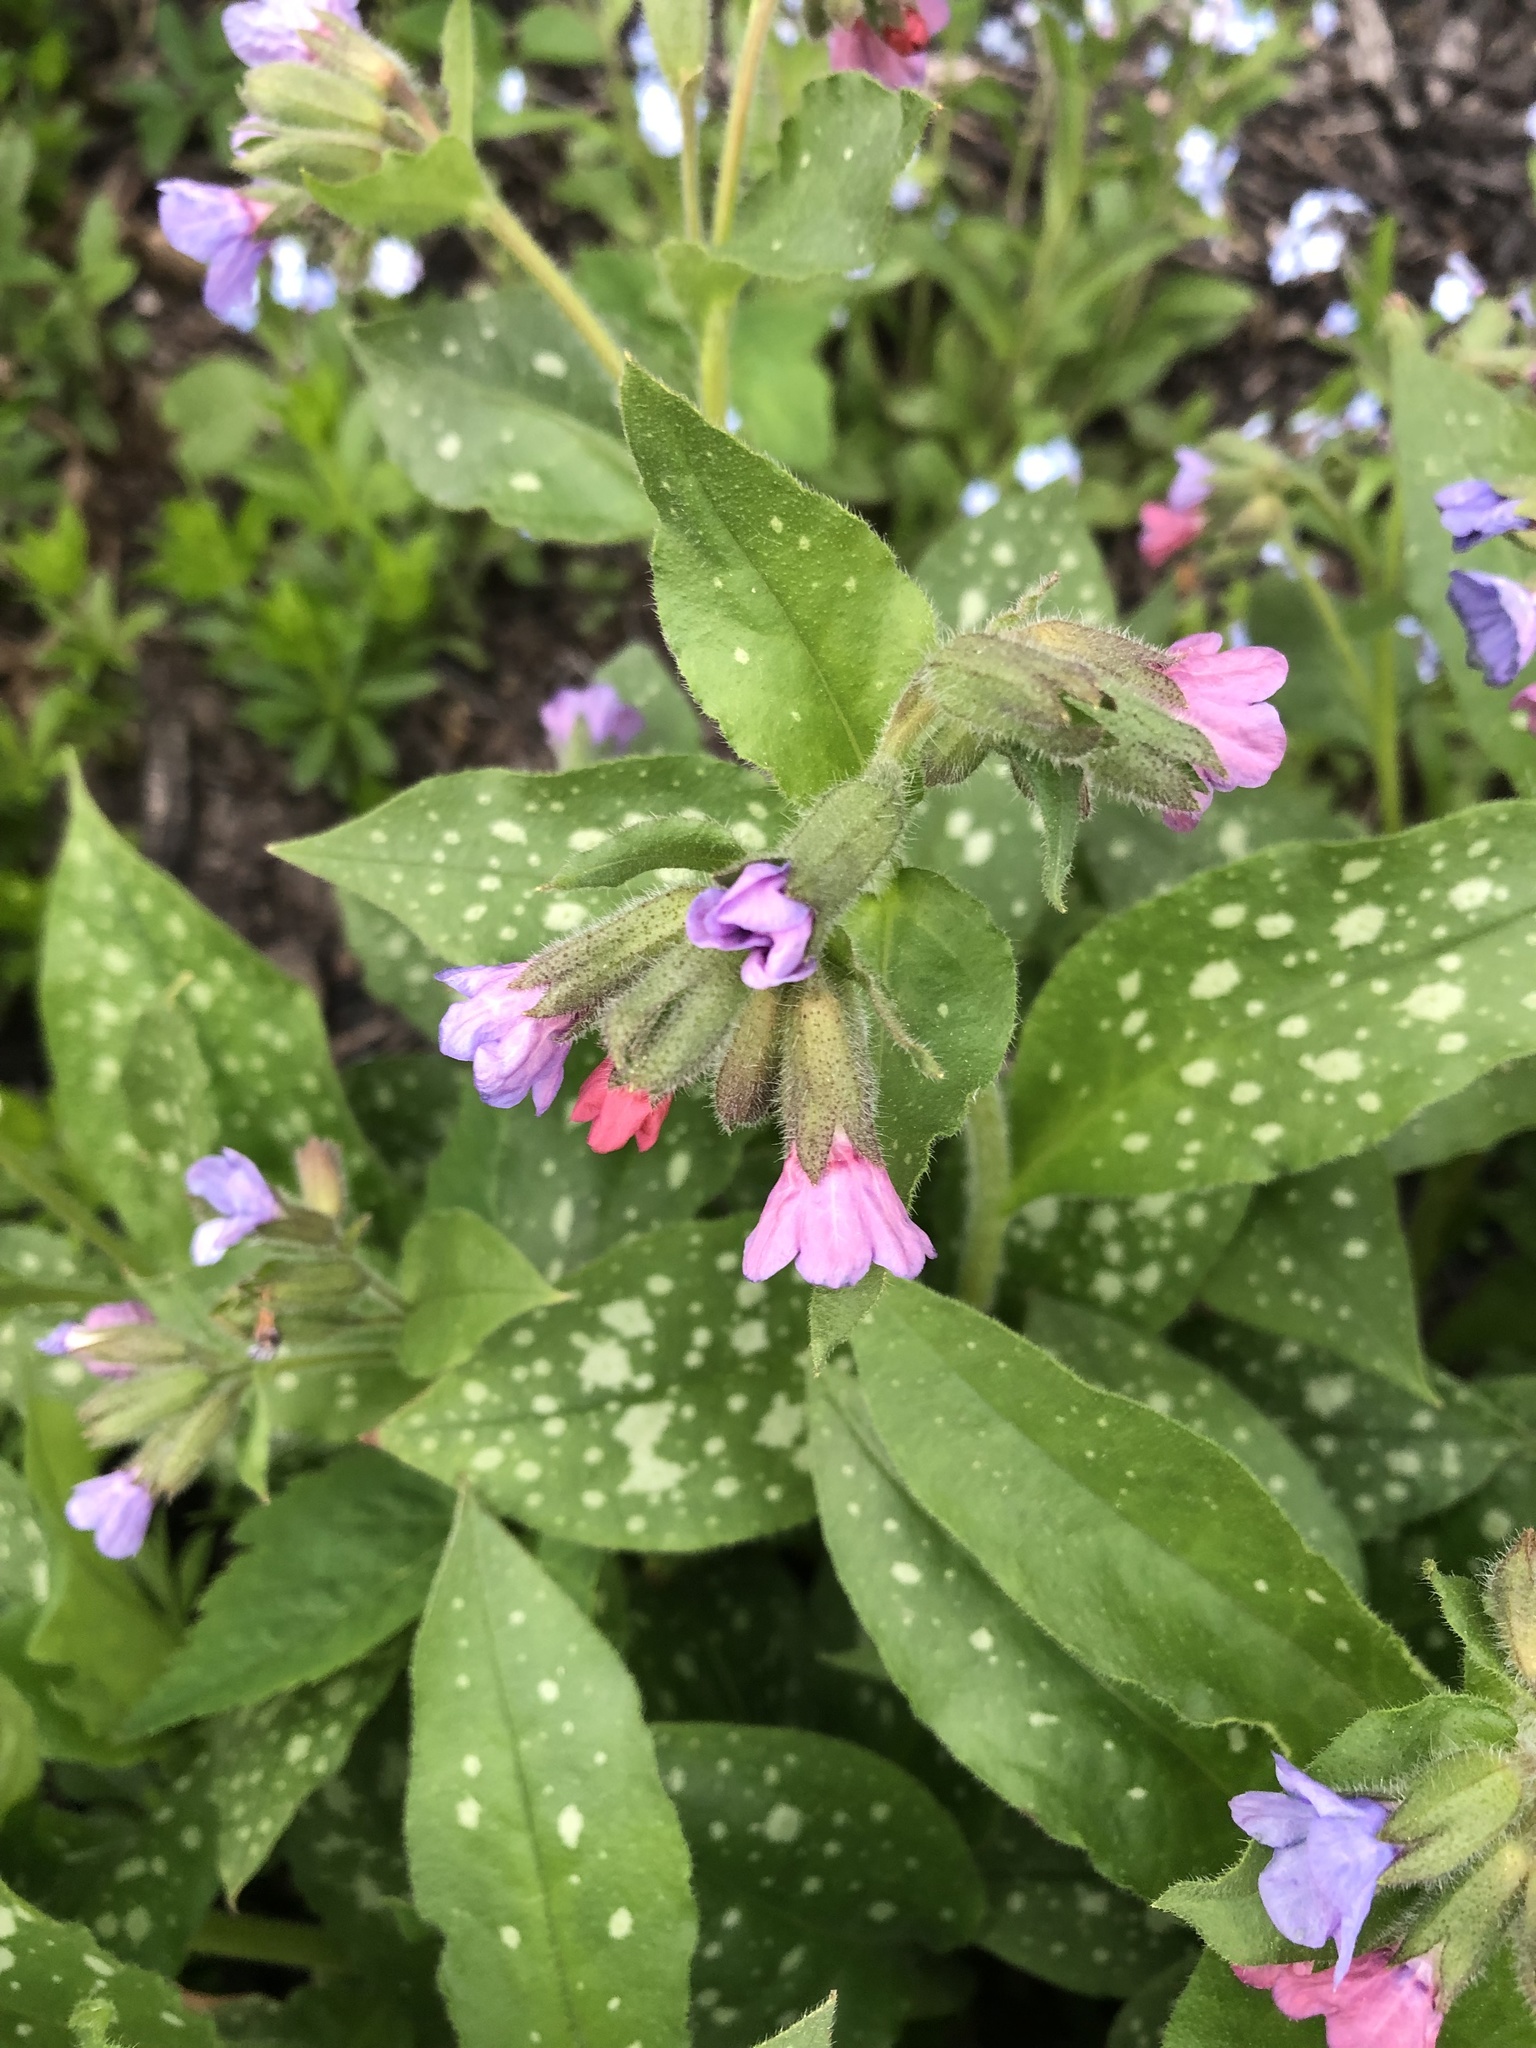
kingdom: Plantae
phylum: Tracheophyta
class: Magnoliopsida
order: Boraginales
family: Boraginaceae
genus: Pulmonaria
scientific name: Pulmonaria officinalis
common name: Lungwort
